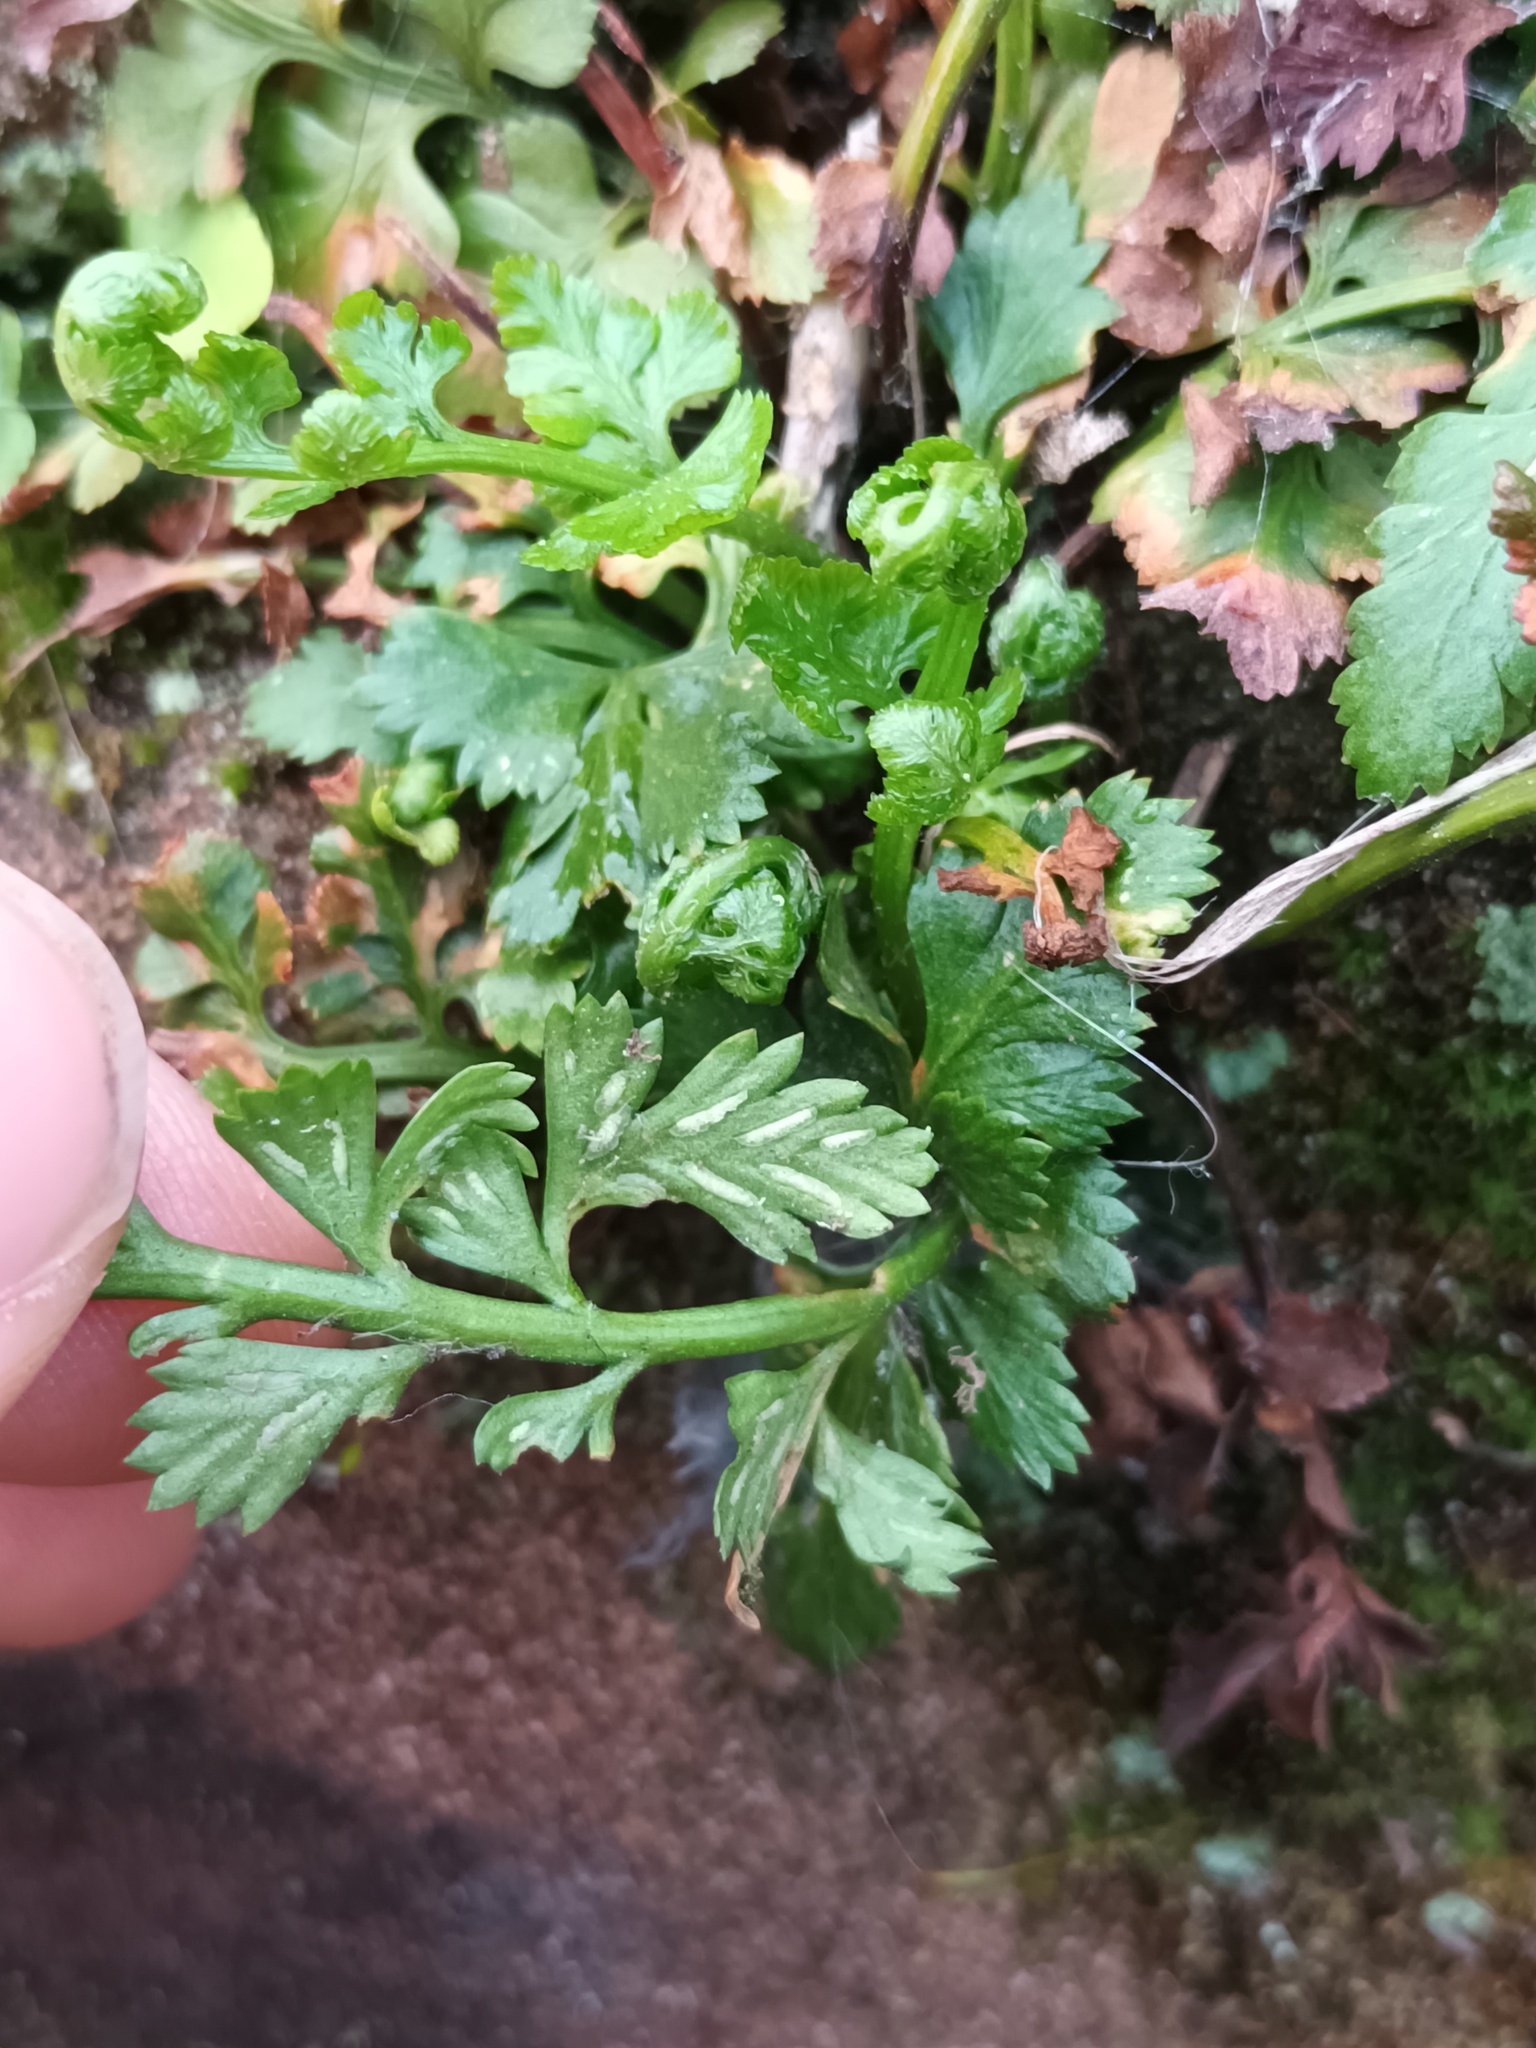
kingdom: Plantae
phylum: Tracheophyta
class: Polypodiopsida
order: Polypodiales
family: Aspleniaceae
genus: Asplenium
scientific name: Asplenium adiantum-nigrum
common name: Black spleenwort
